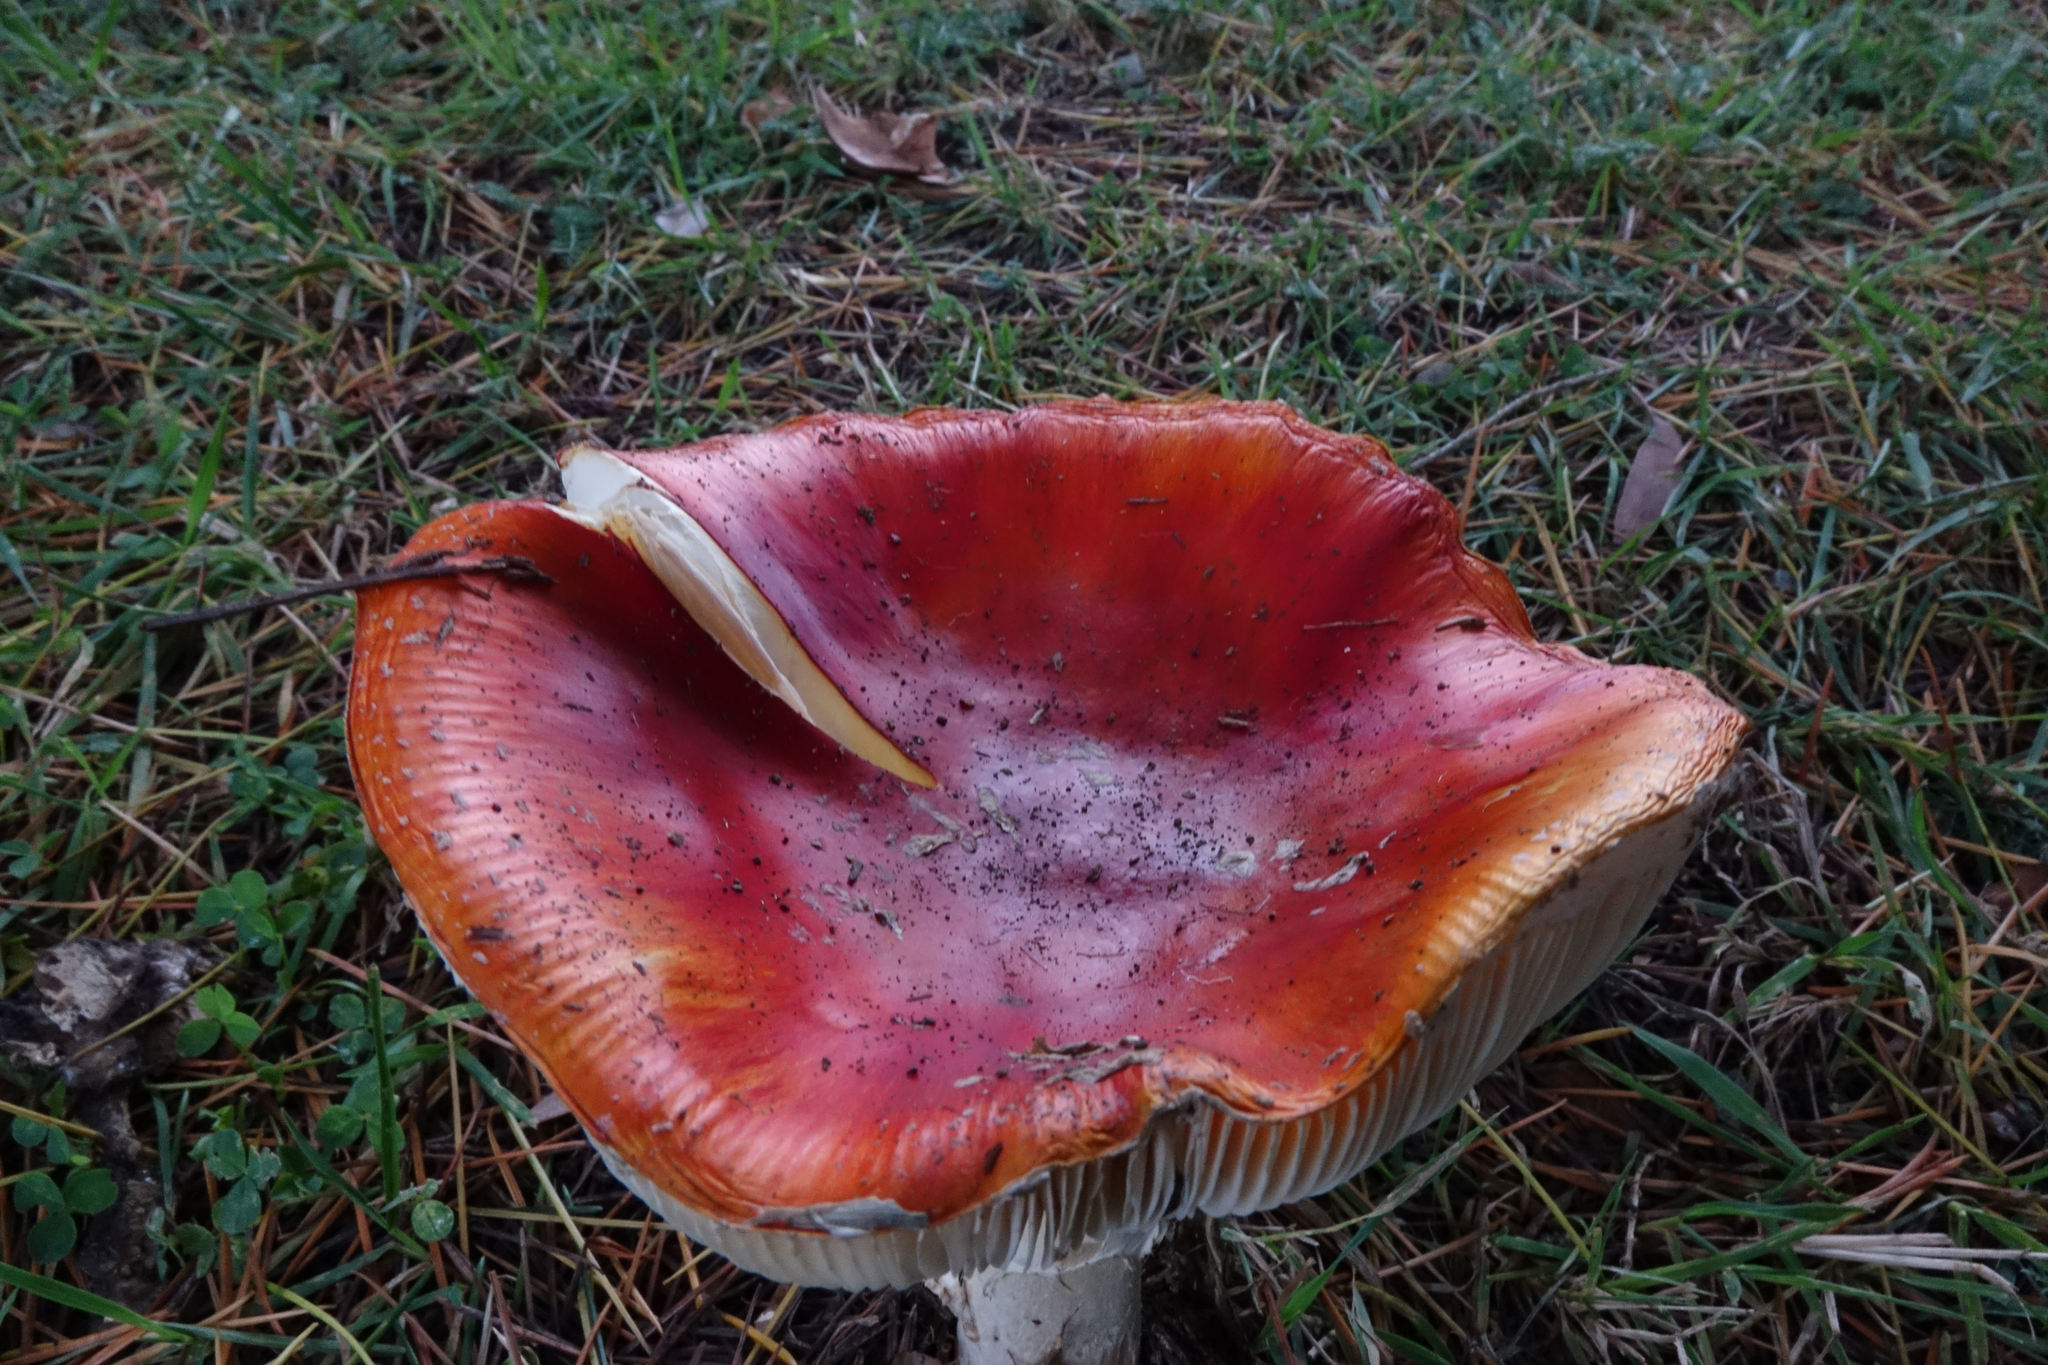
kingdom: Fungi
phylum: Basidiomycota
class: Agaricomycetes
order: Agaricales
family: Amanitaceae
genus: Amanita
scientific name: Amanita muscaria
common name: Fly agaric
